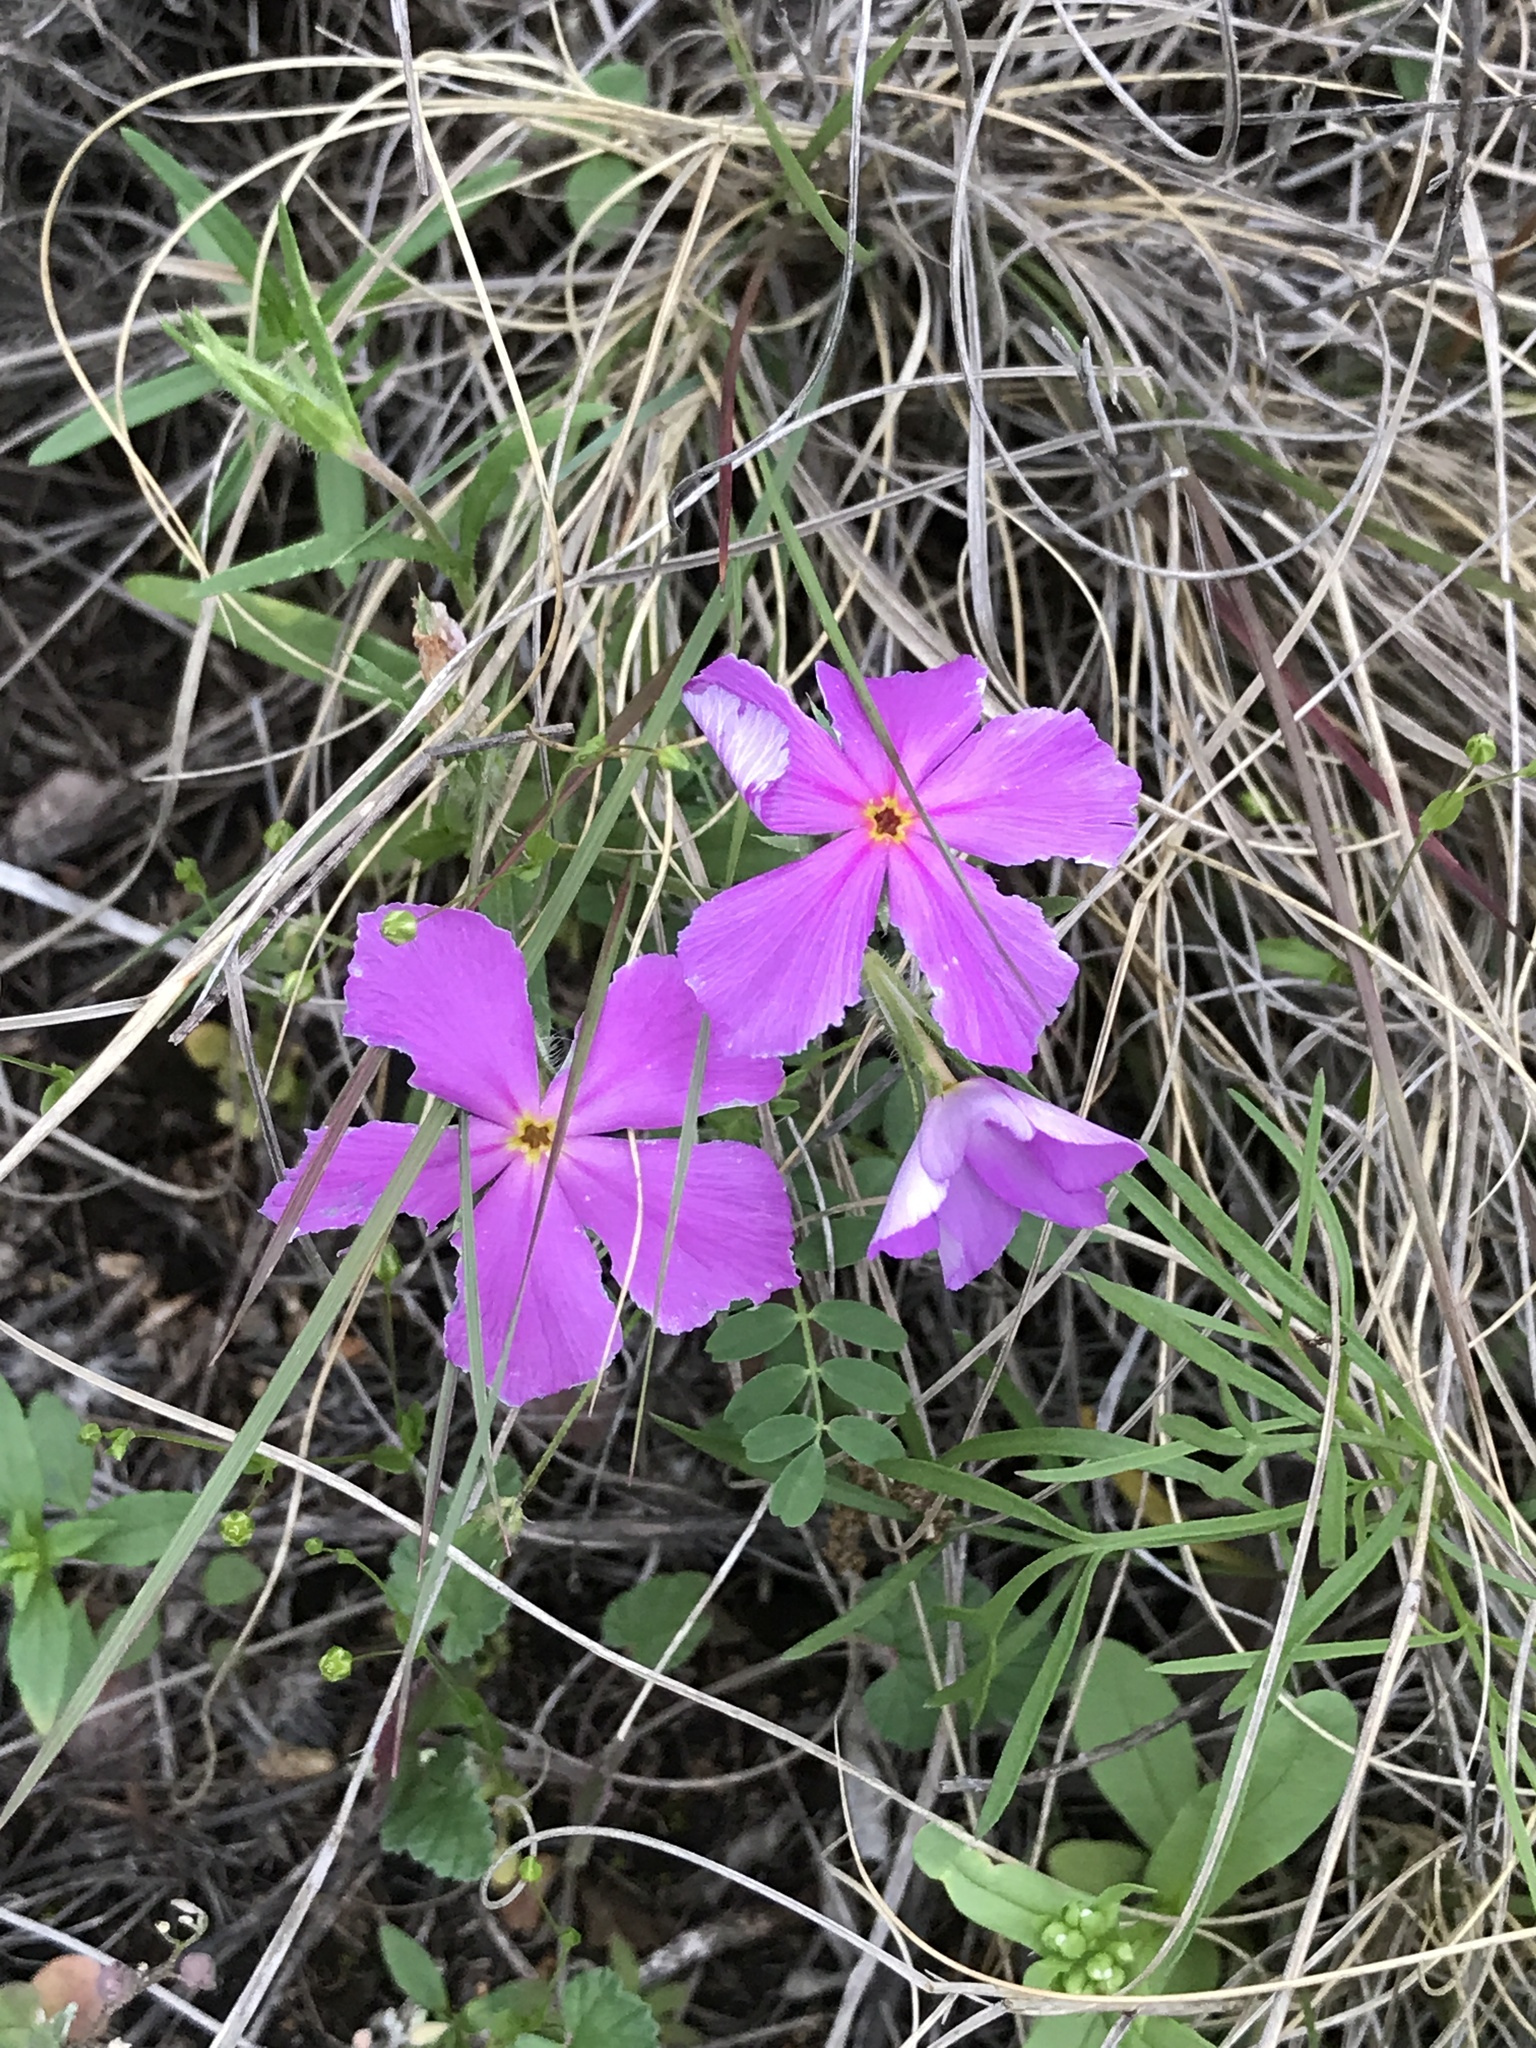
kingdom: Plantae
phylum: Tracheophyta
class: Magnoliopsida
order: Ericales
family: Polemoniaceae
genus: Phlox
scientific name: Phlox roemeriana
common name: Roemer's phlox
